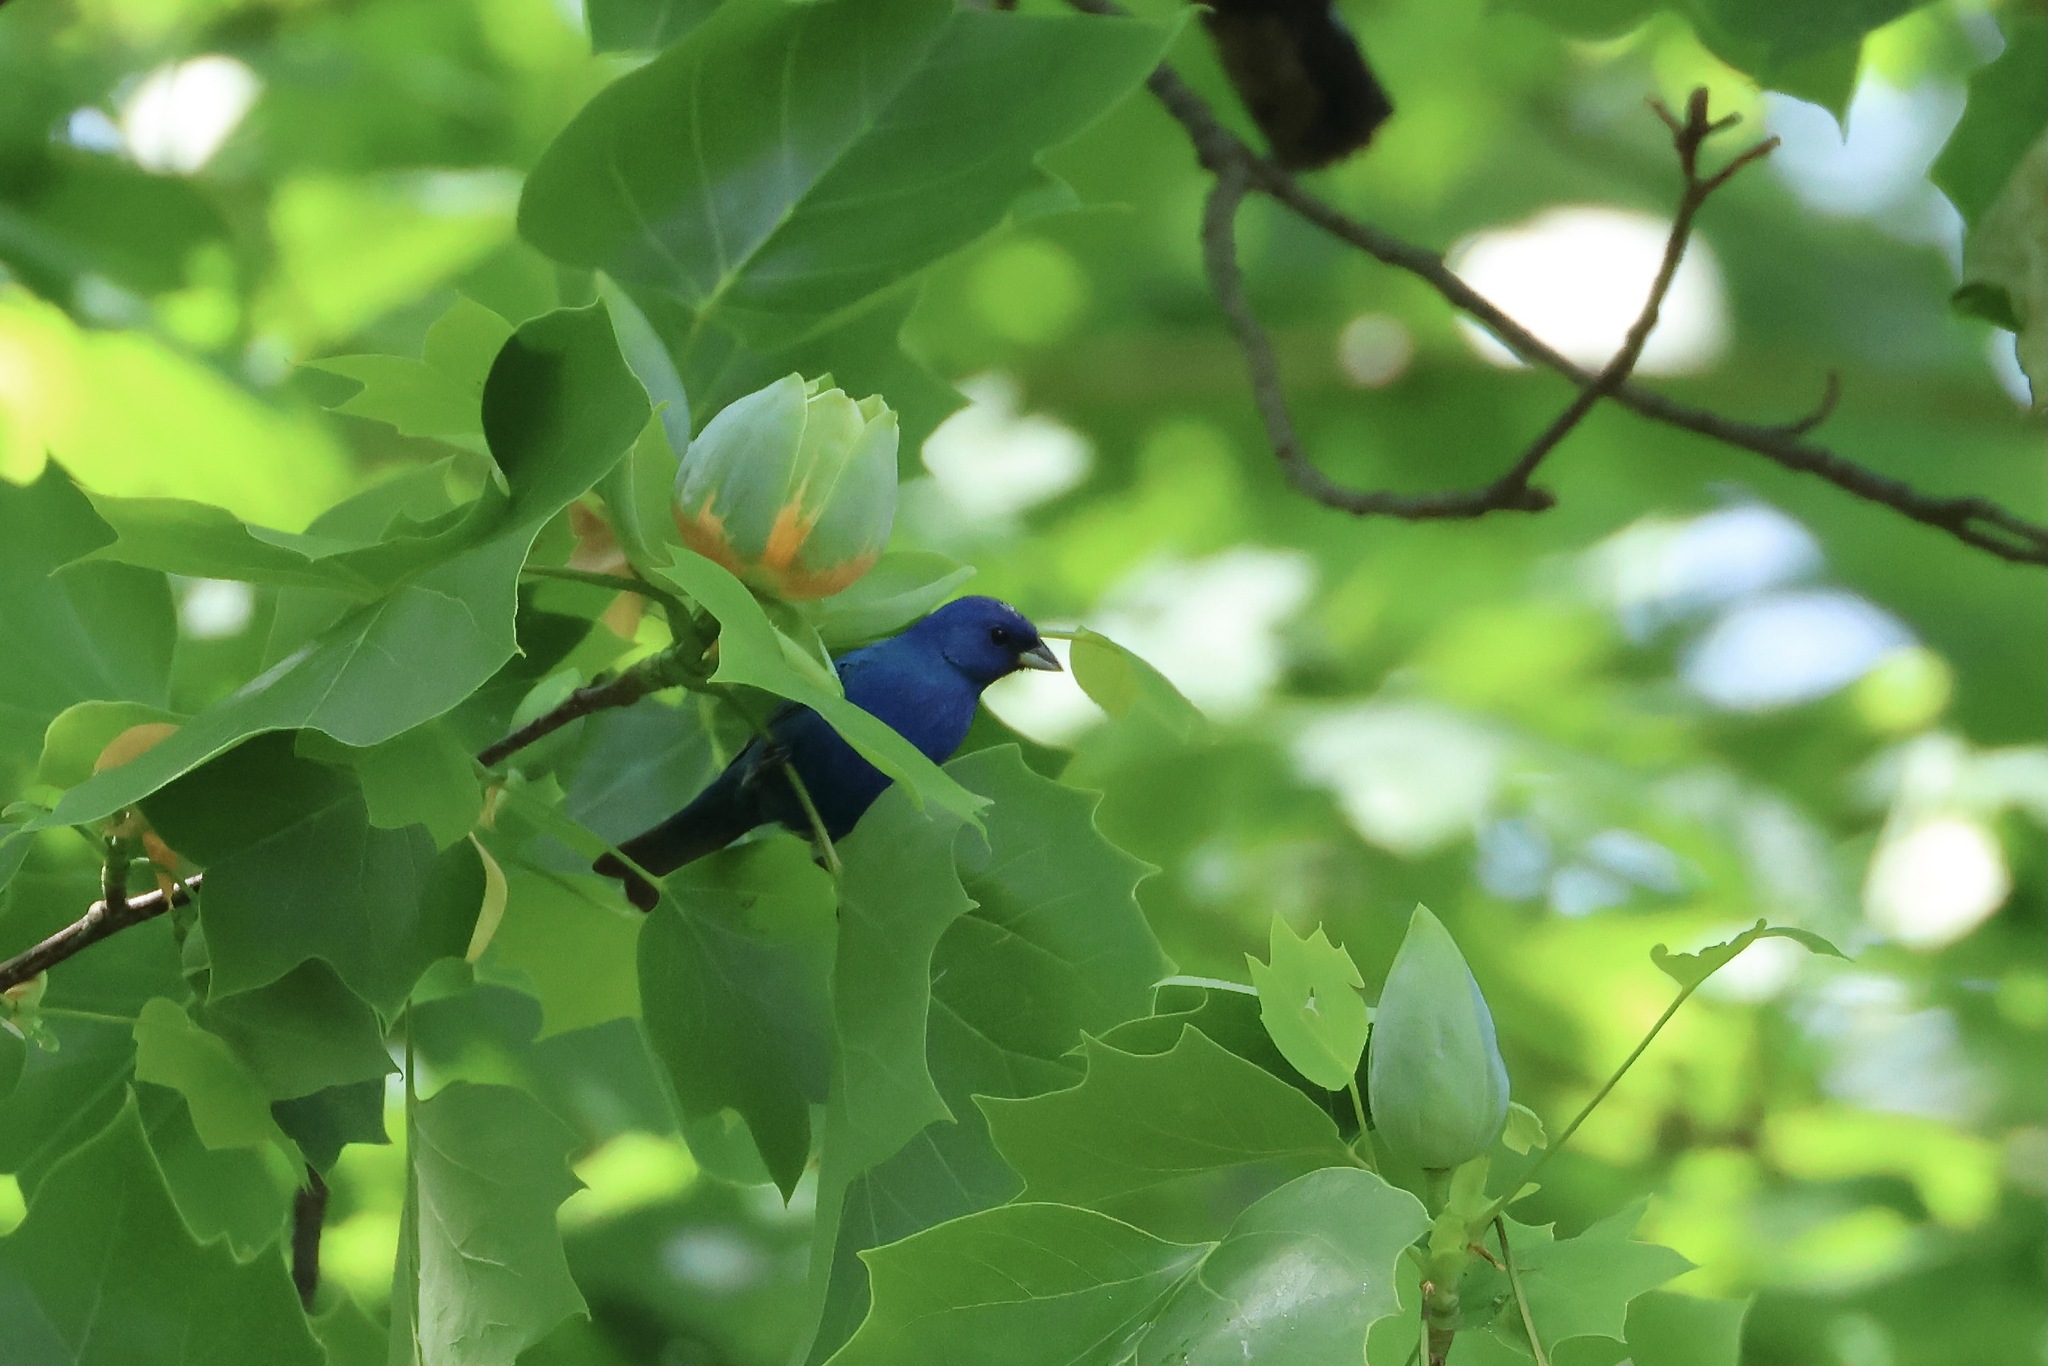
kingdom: Animalia
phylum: Chordata
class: Aves
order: Passeriformes
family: Cardinalidae
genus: Passerina
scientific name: Passerina cyanea
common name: Indigo bunting
